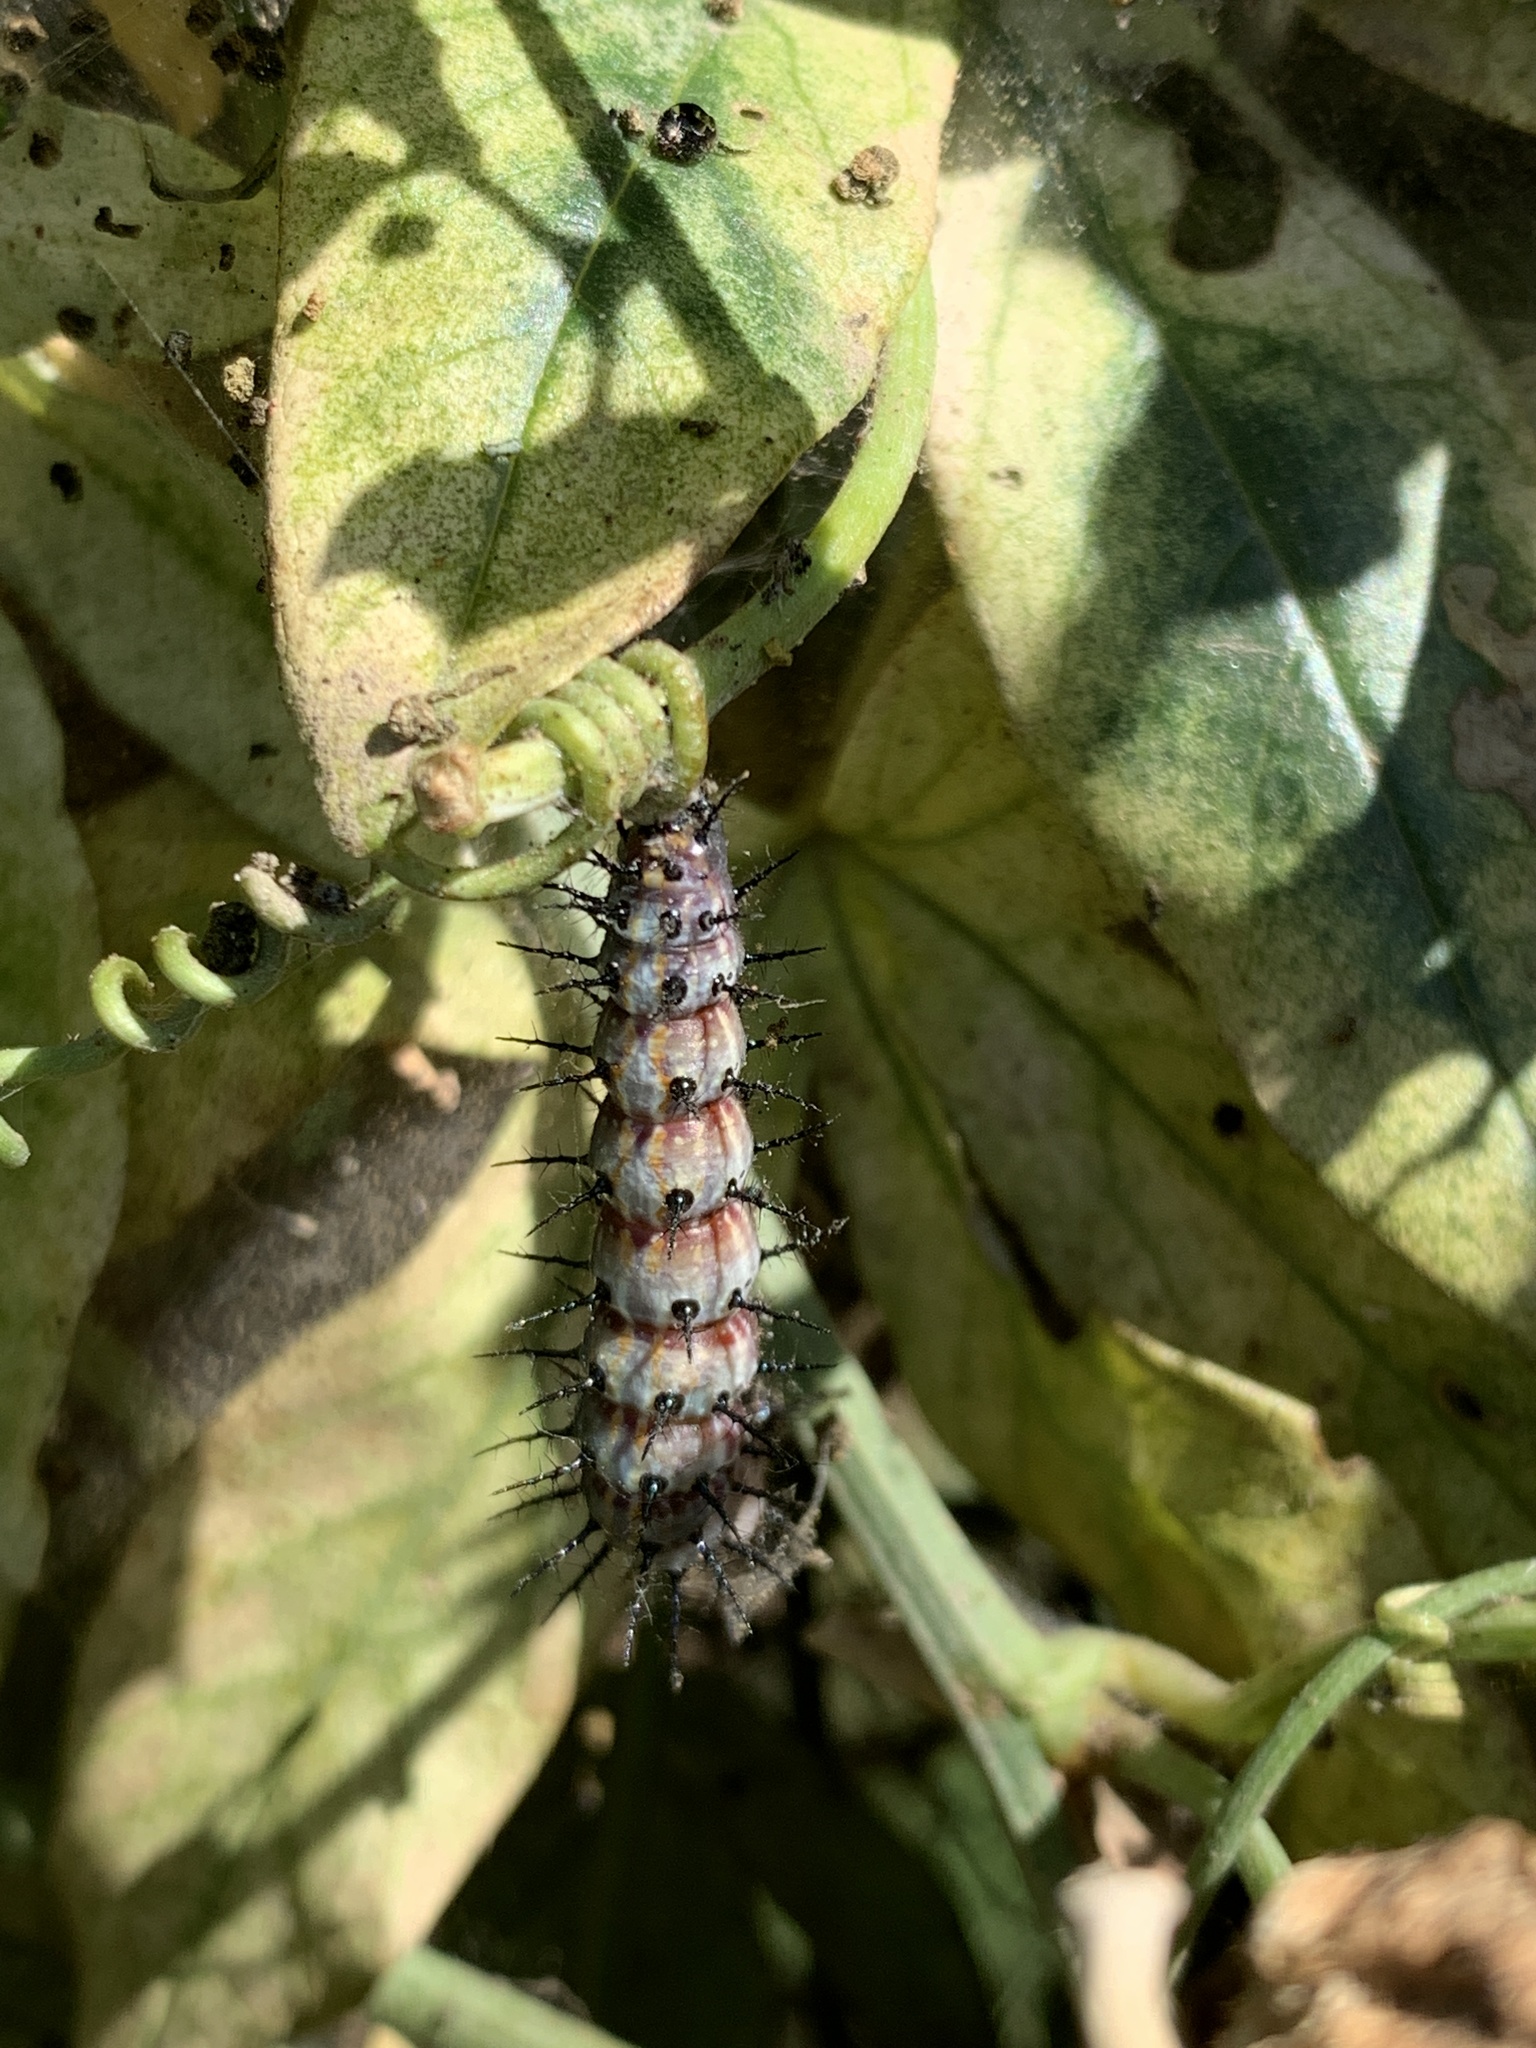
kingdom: Animalia
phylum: Arthropoda
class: Insecta
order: Lepidoptera
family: Nymphalidae
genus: Dione
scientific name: Dione vanillae
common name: Gulf fritillary
